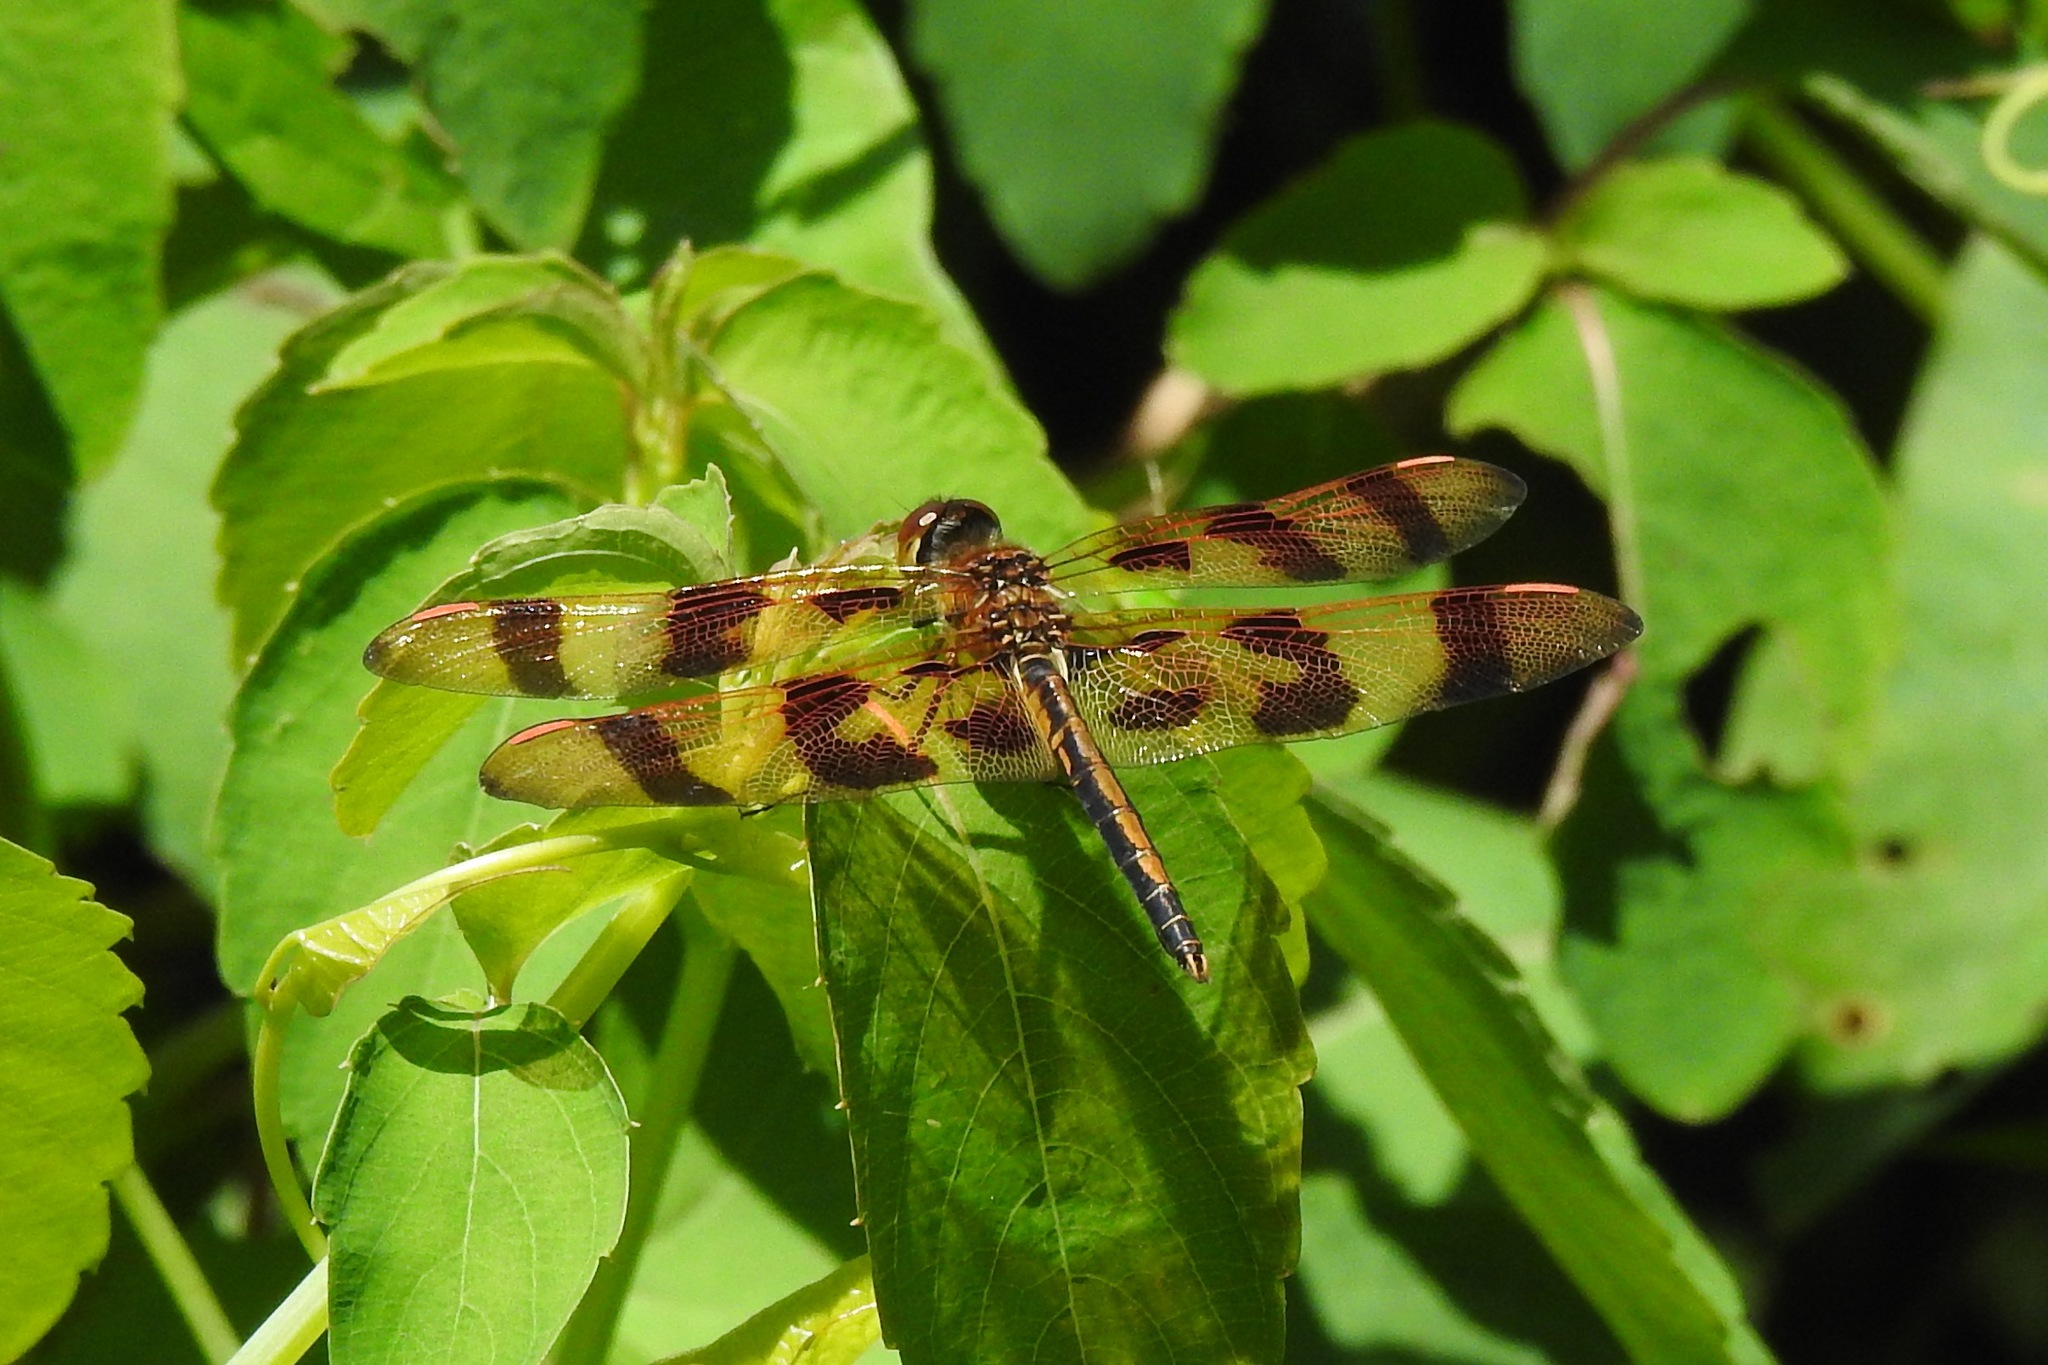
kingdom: Animalia
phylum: Arthropoda
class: Insecta
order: Odonata
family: Libellulidae
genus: Celithemis
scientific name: Celithemis eponina
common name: Halloween pennant
